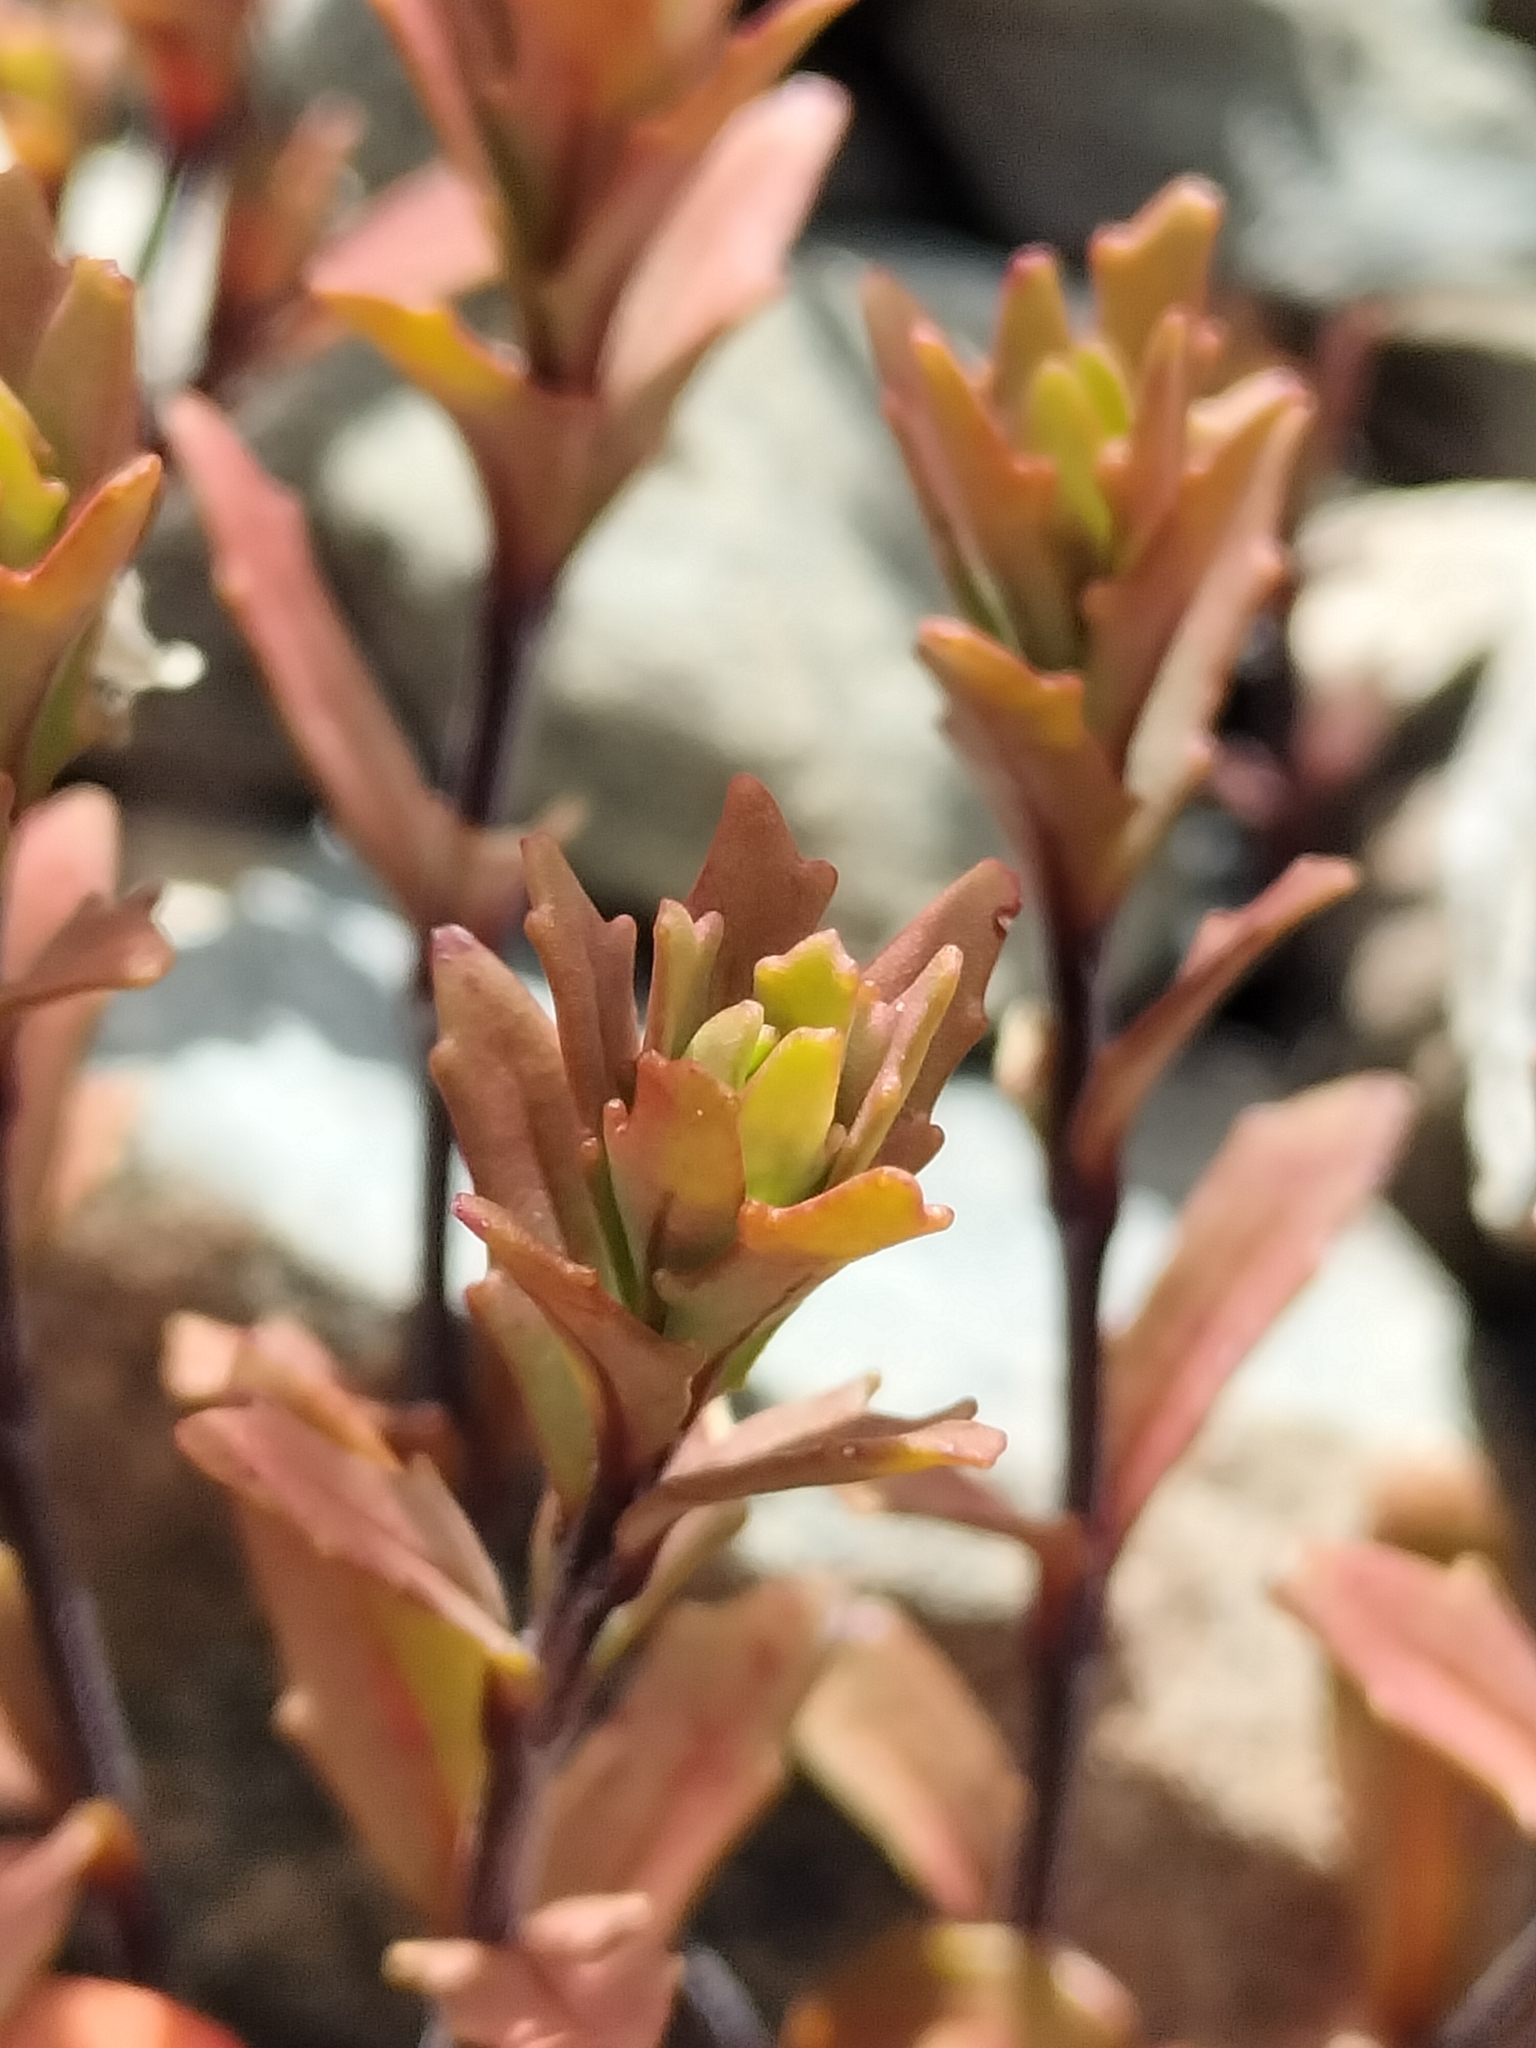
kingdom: Plantae
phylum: Tracheophyta
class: Magnoliopsida
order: Myrtales
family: Onagraceae
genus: Epilobium
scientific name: Epilobium melanocaulon
